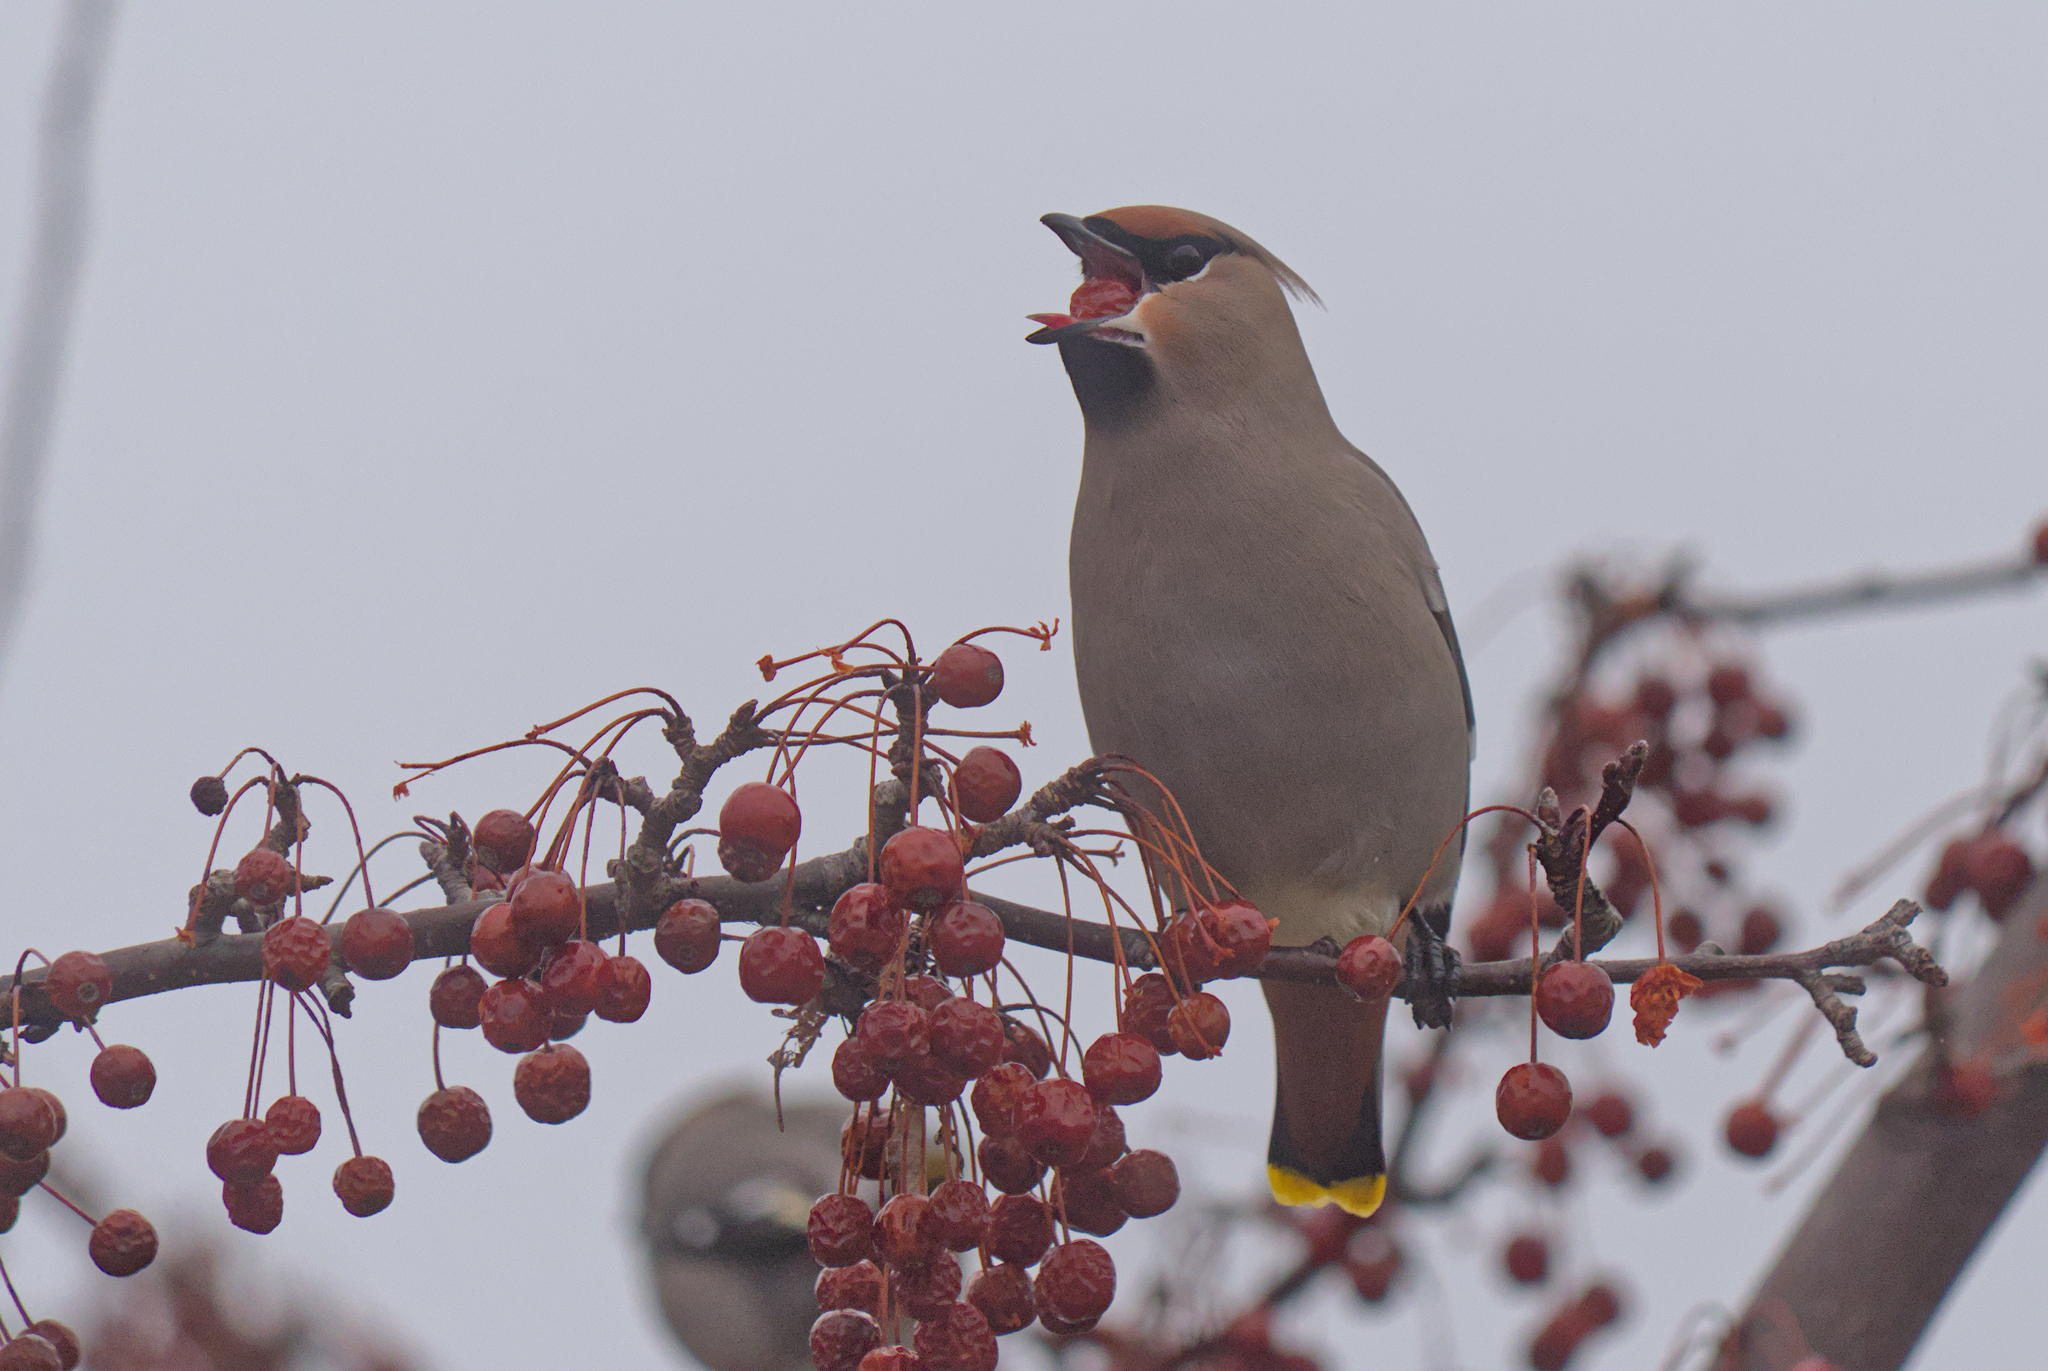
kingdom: Animalia
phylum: Chordata
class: Aves
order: Passeriformes
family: Bombycillidae
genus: Bombycilla
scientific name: Bombycilla garrulus
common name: Bohemian waxwing
